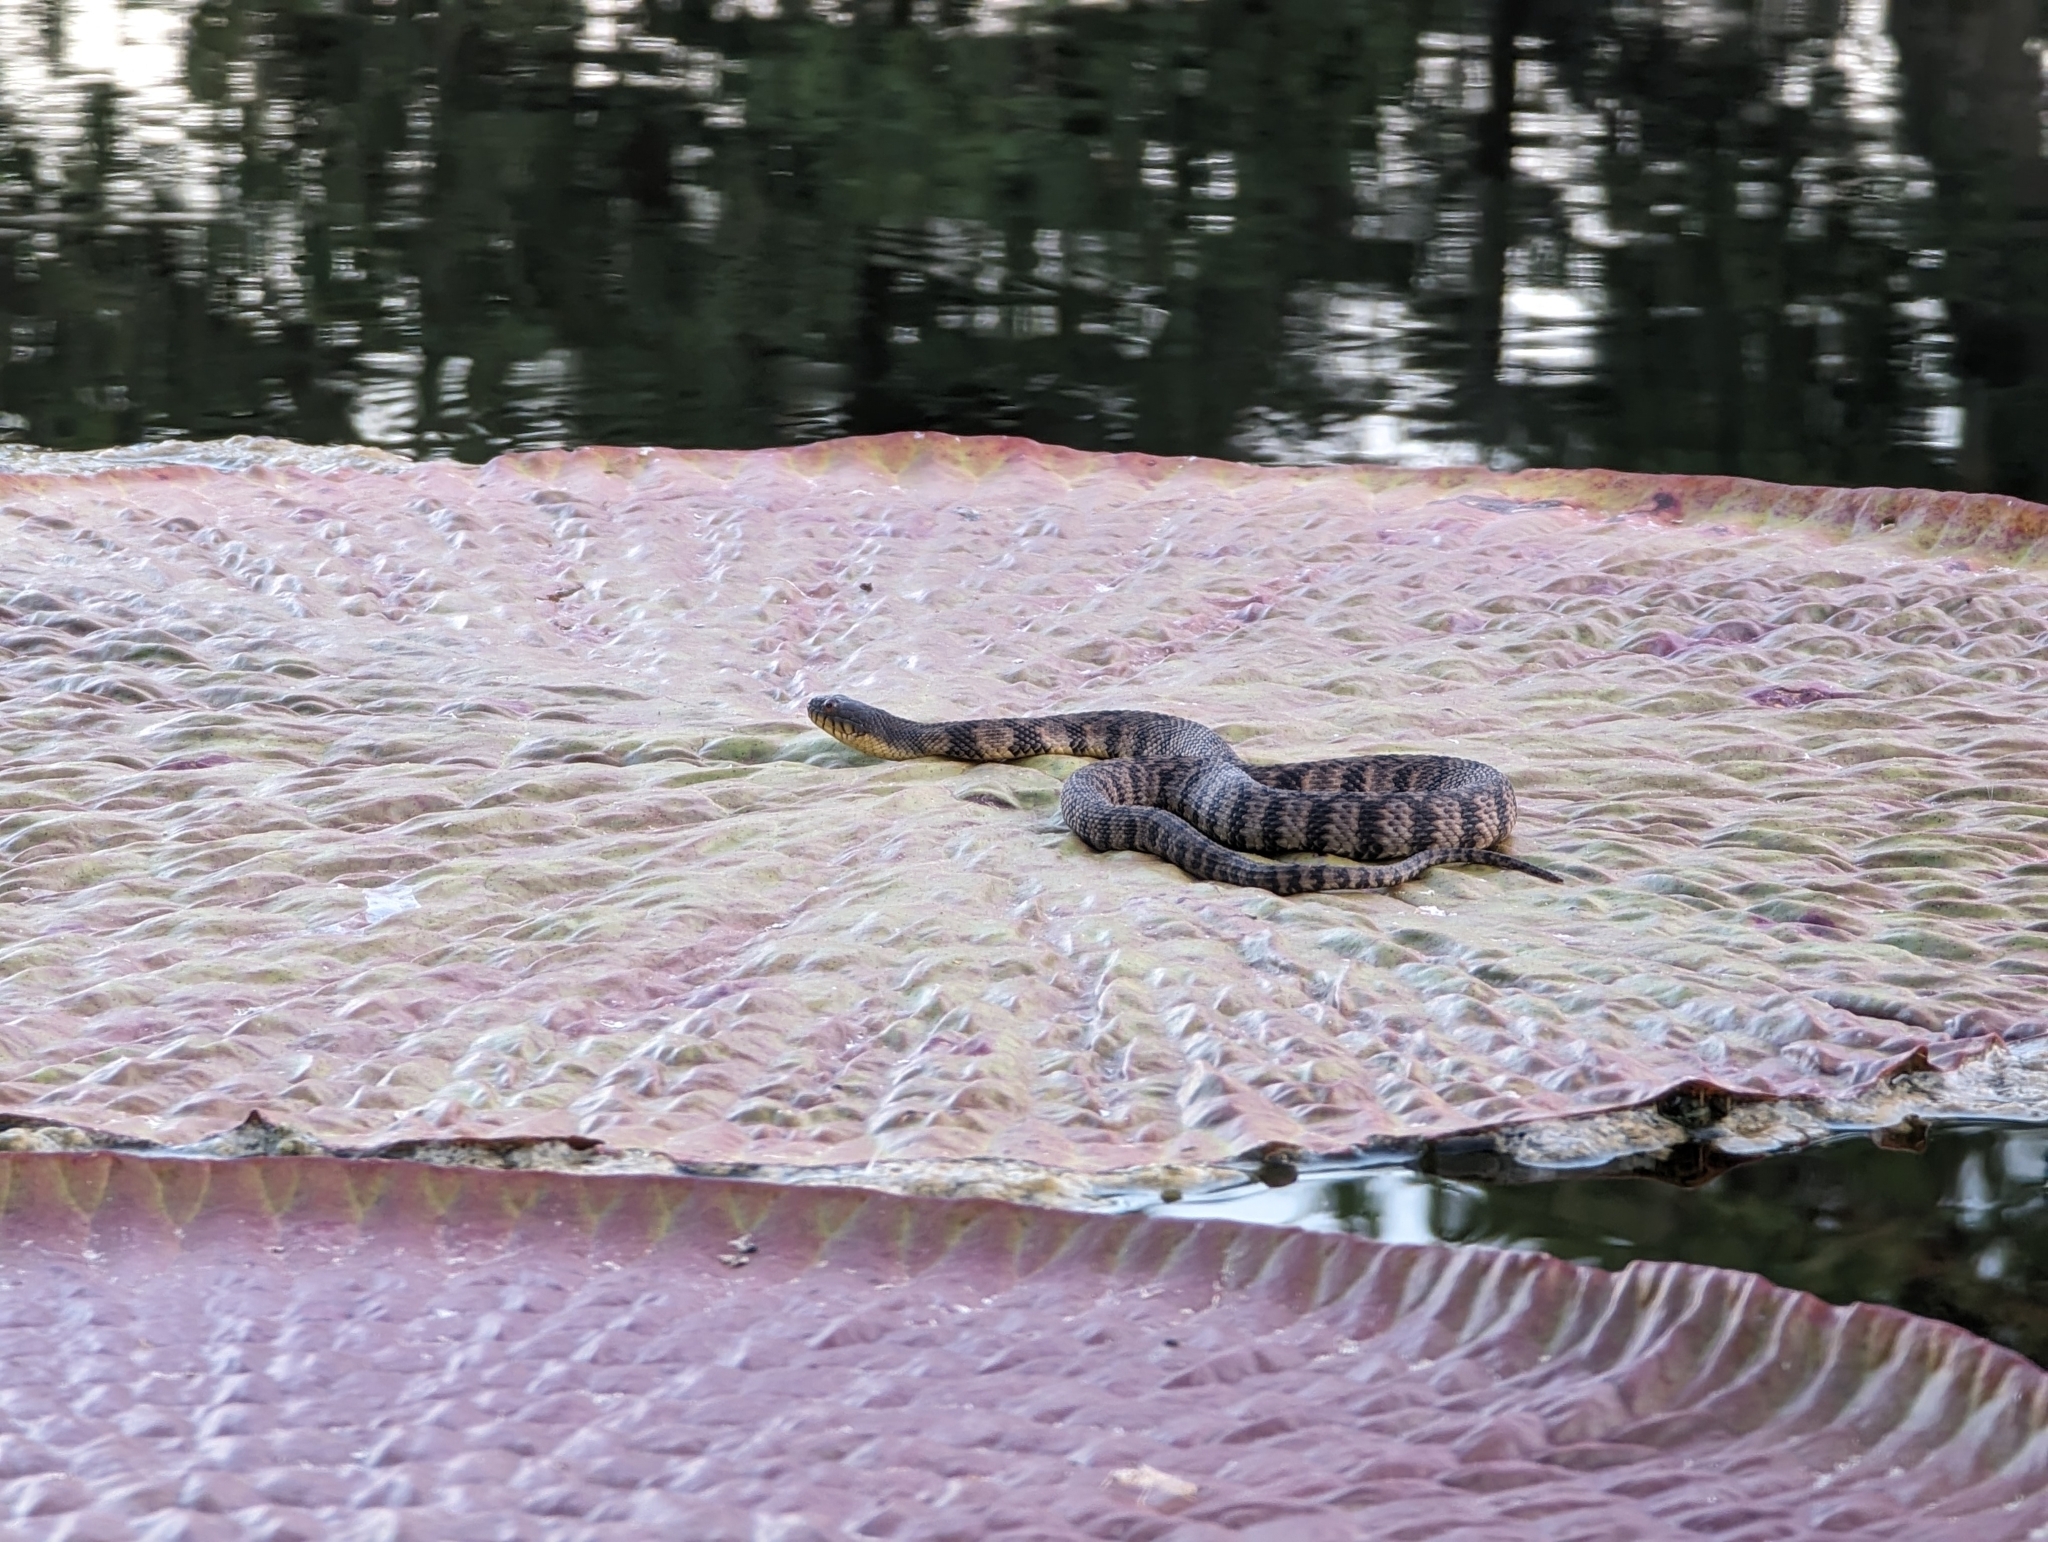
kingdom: Animalia
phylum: Chordata
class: Squamata
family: Colubridae
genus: Nerodia
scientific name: Nerodia rhombifer
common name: Diamondback water snake
